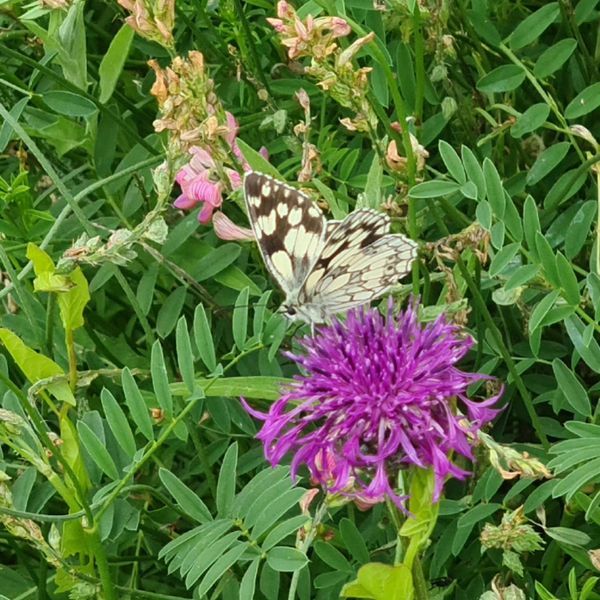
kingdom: Animalia
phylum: Arthropoda
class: Insecta
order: Lepidoptera
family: Nymphalidae
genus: Melanargia
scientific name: Melanargia galathea
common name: Marbled white
